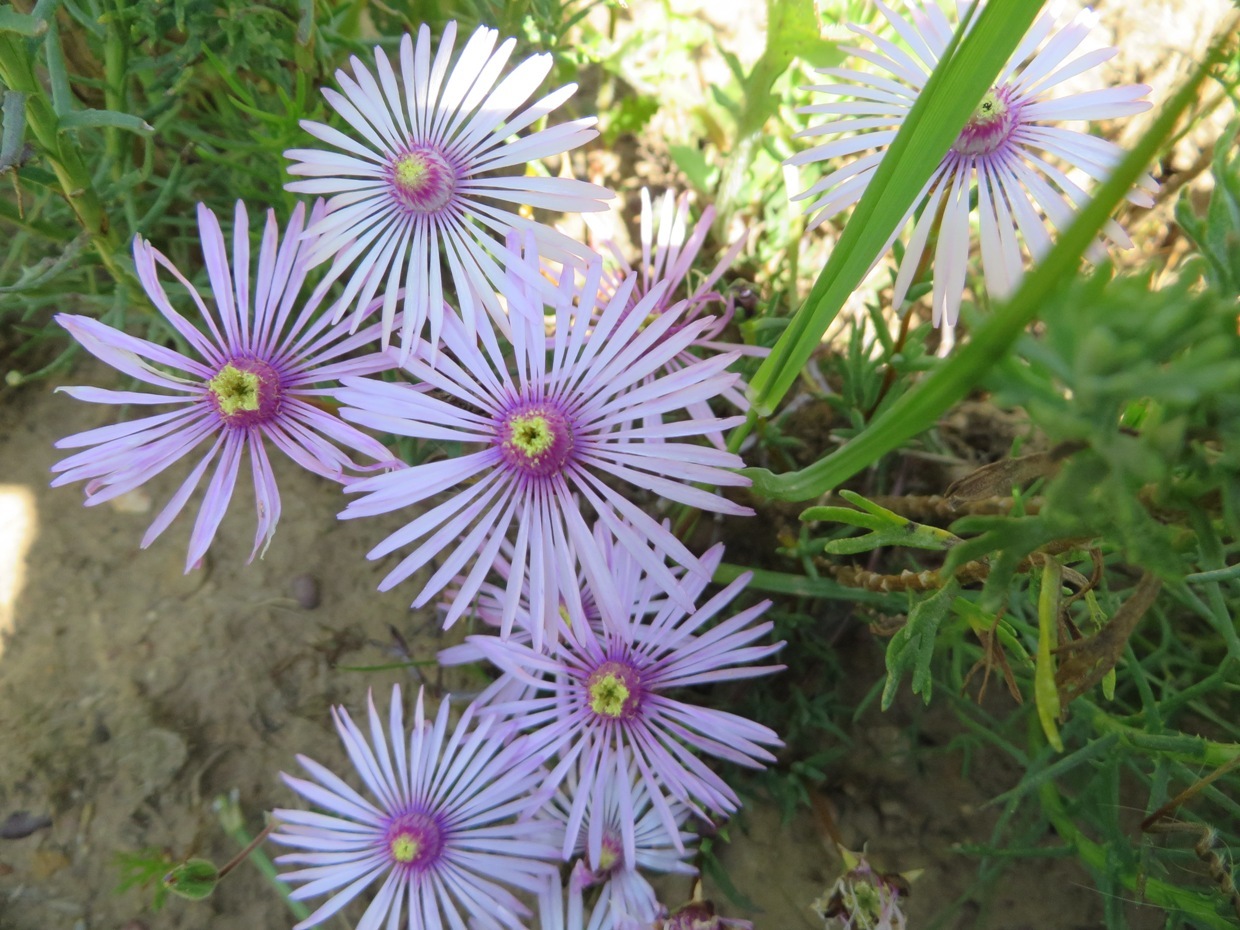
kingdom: Plantae
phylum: Tracheophyta
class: Magnoliopsida
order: Caryophyllales
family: Aizoaceae
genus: Lampranthus
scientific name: Lampranthus leptaleon
